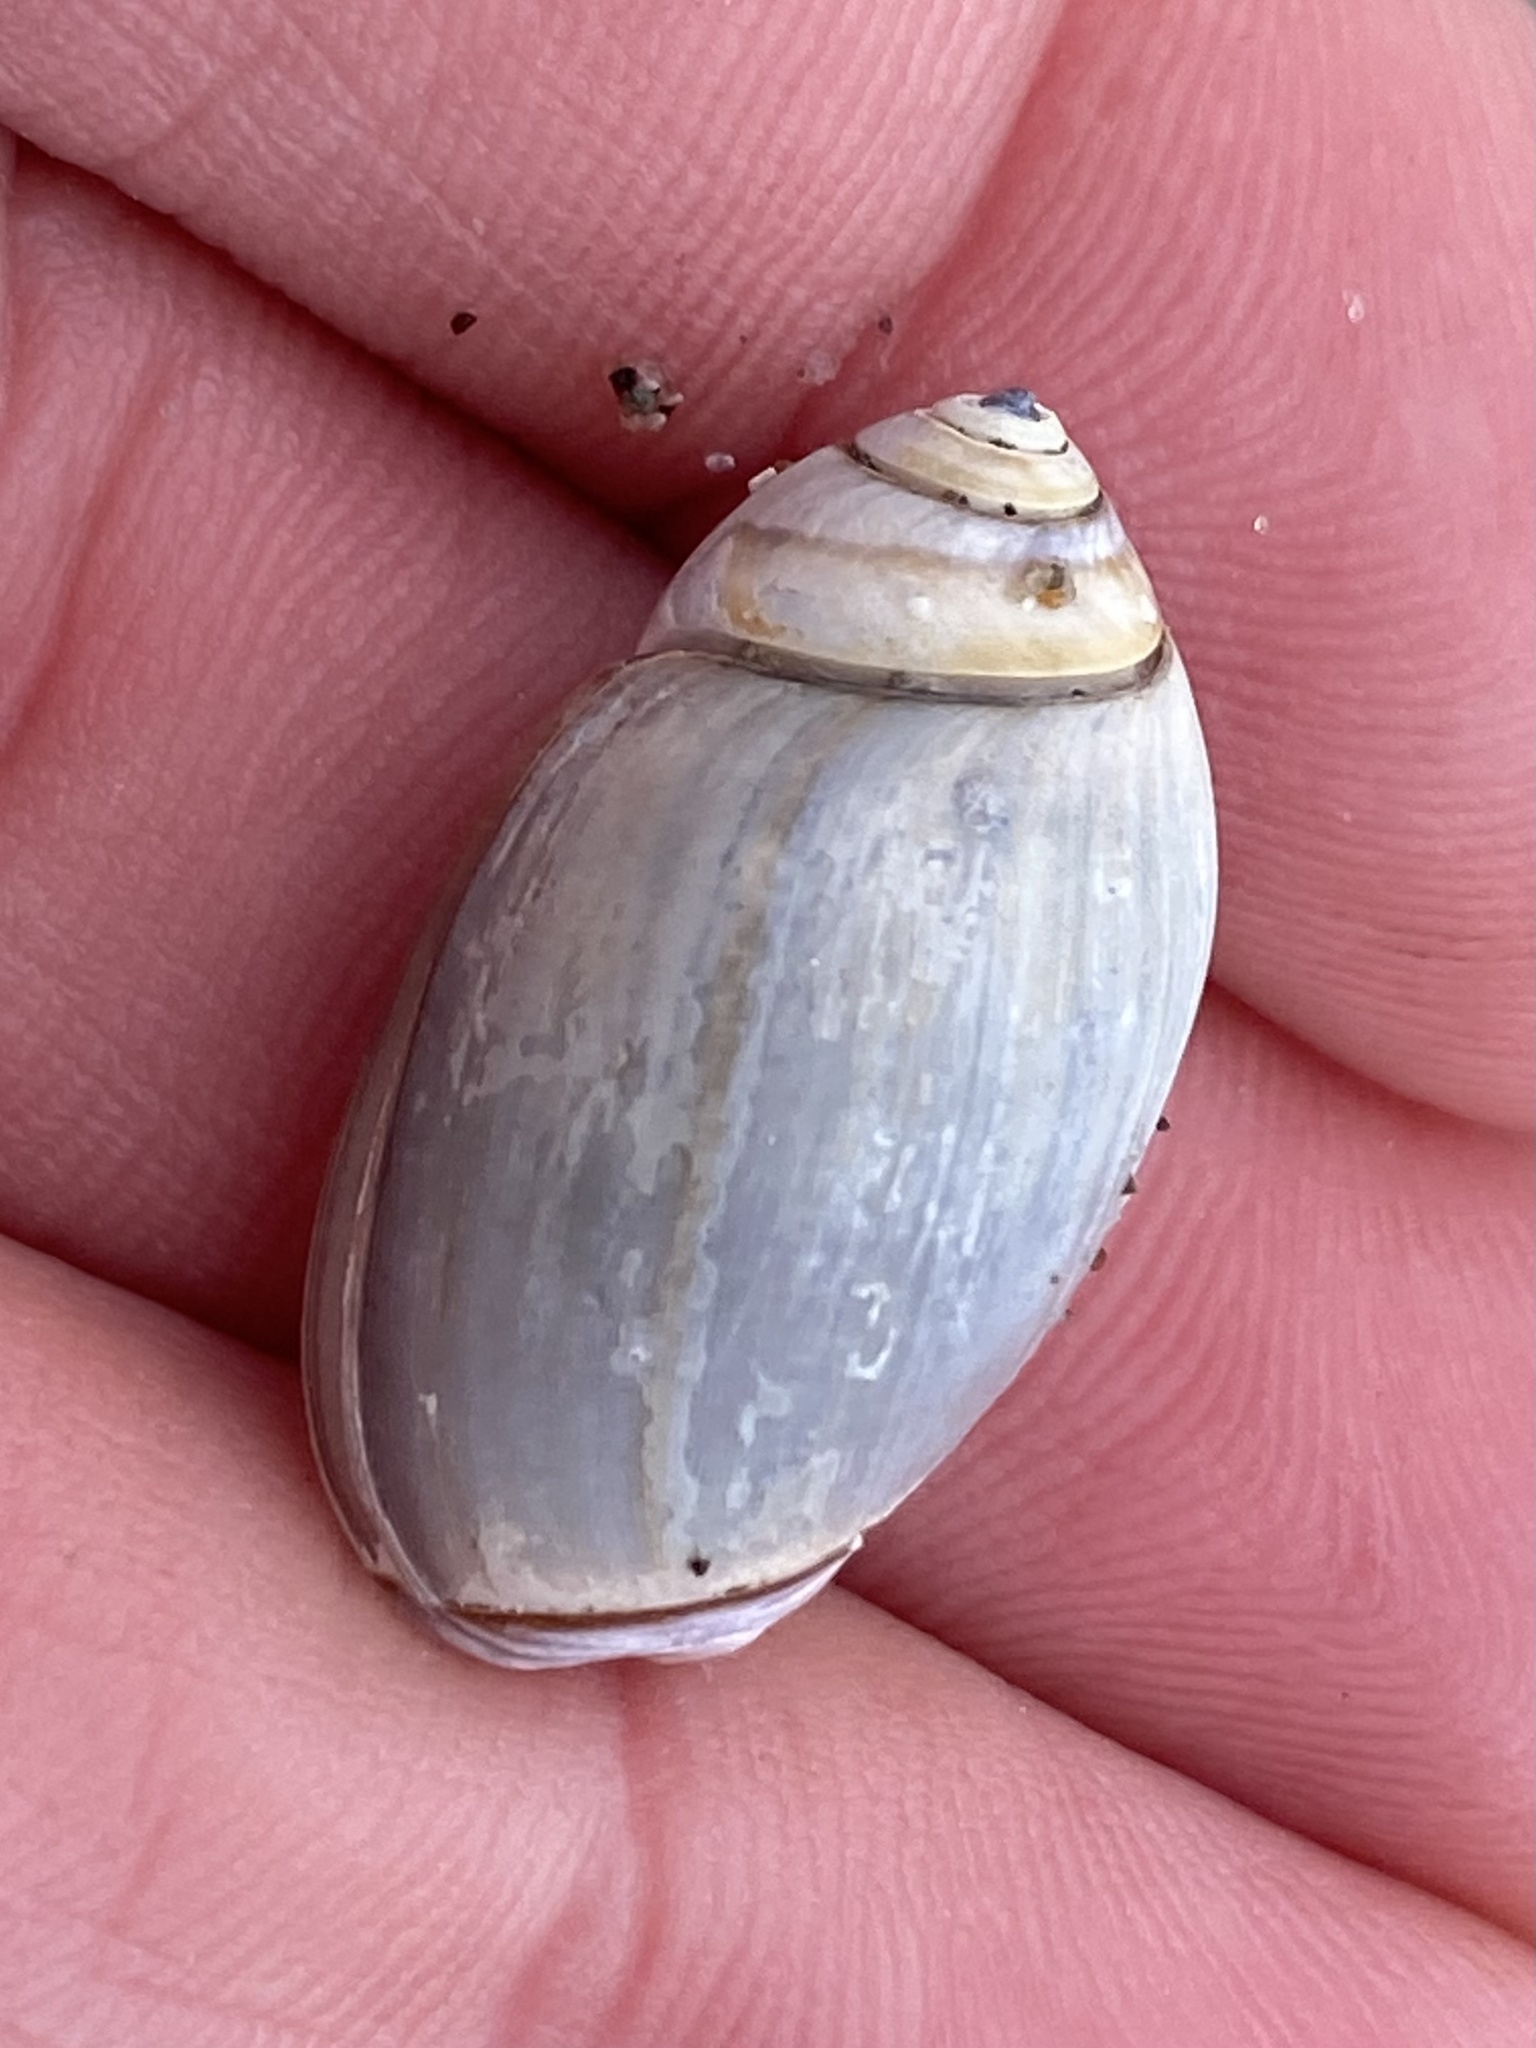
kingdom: Animalia
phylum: Mollusca
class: Gastropoda
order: Neogastropoda
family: Olividae
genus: Callianax
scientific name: Callianax biplicata
